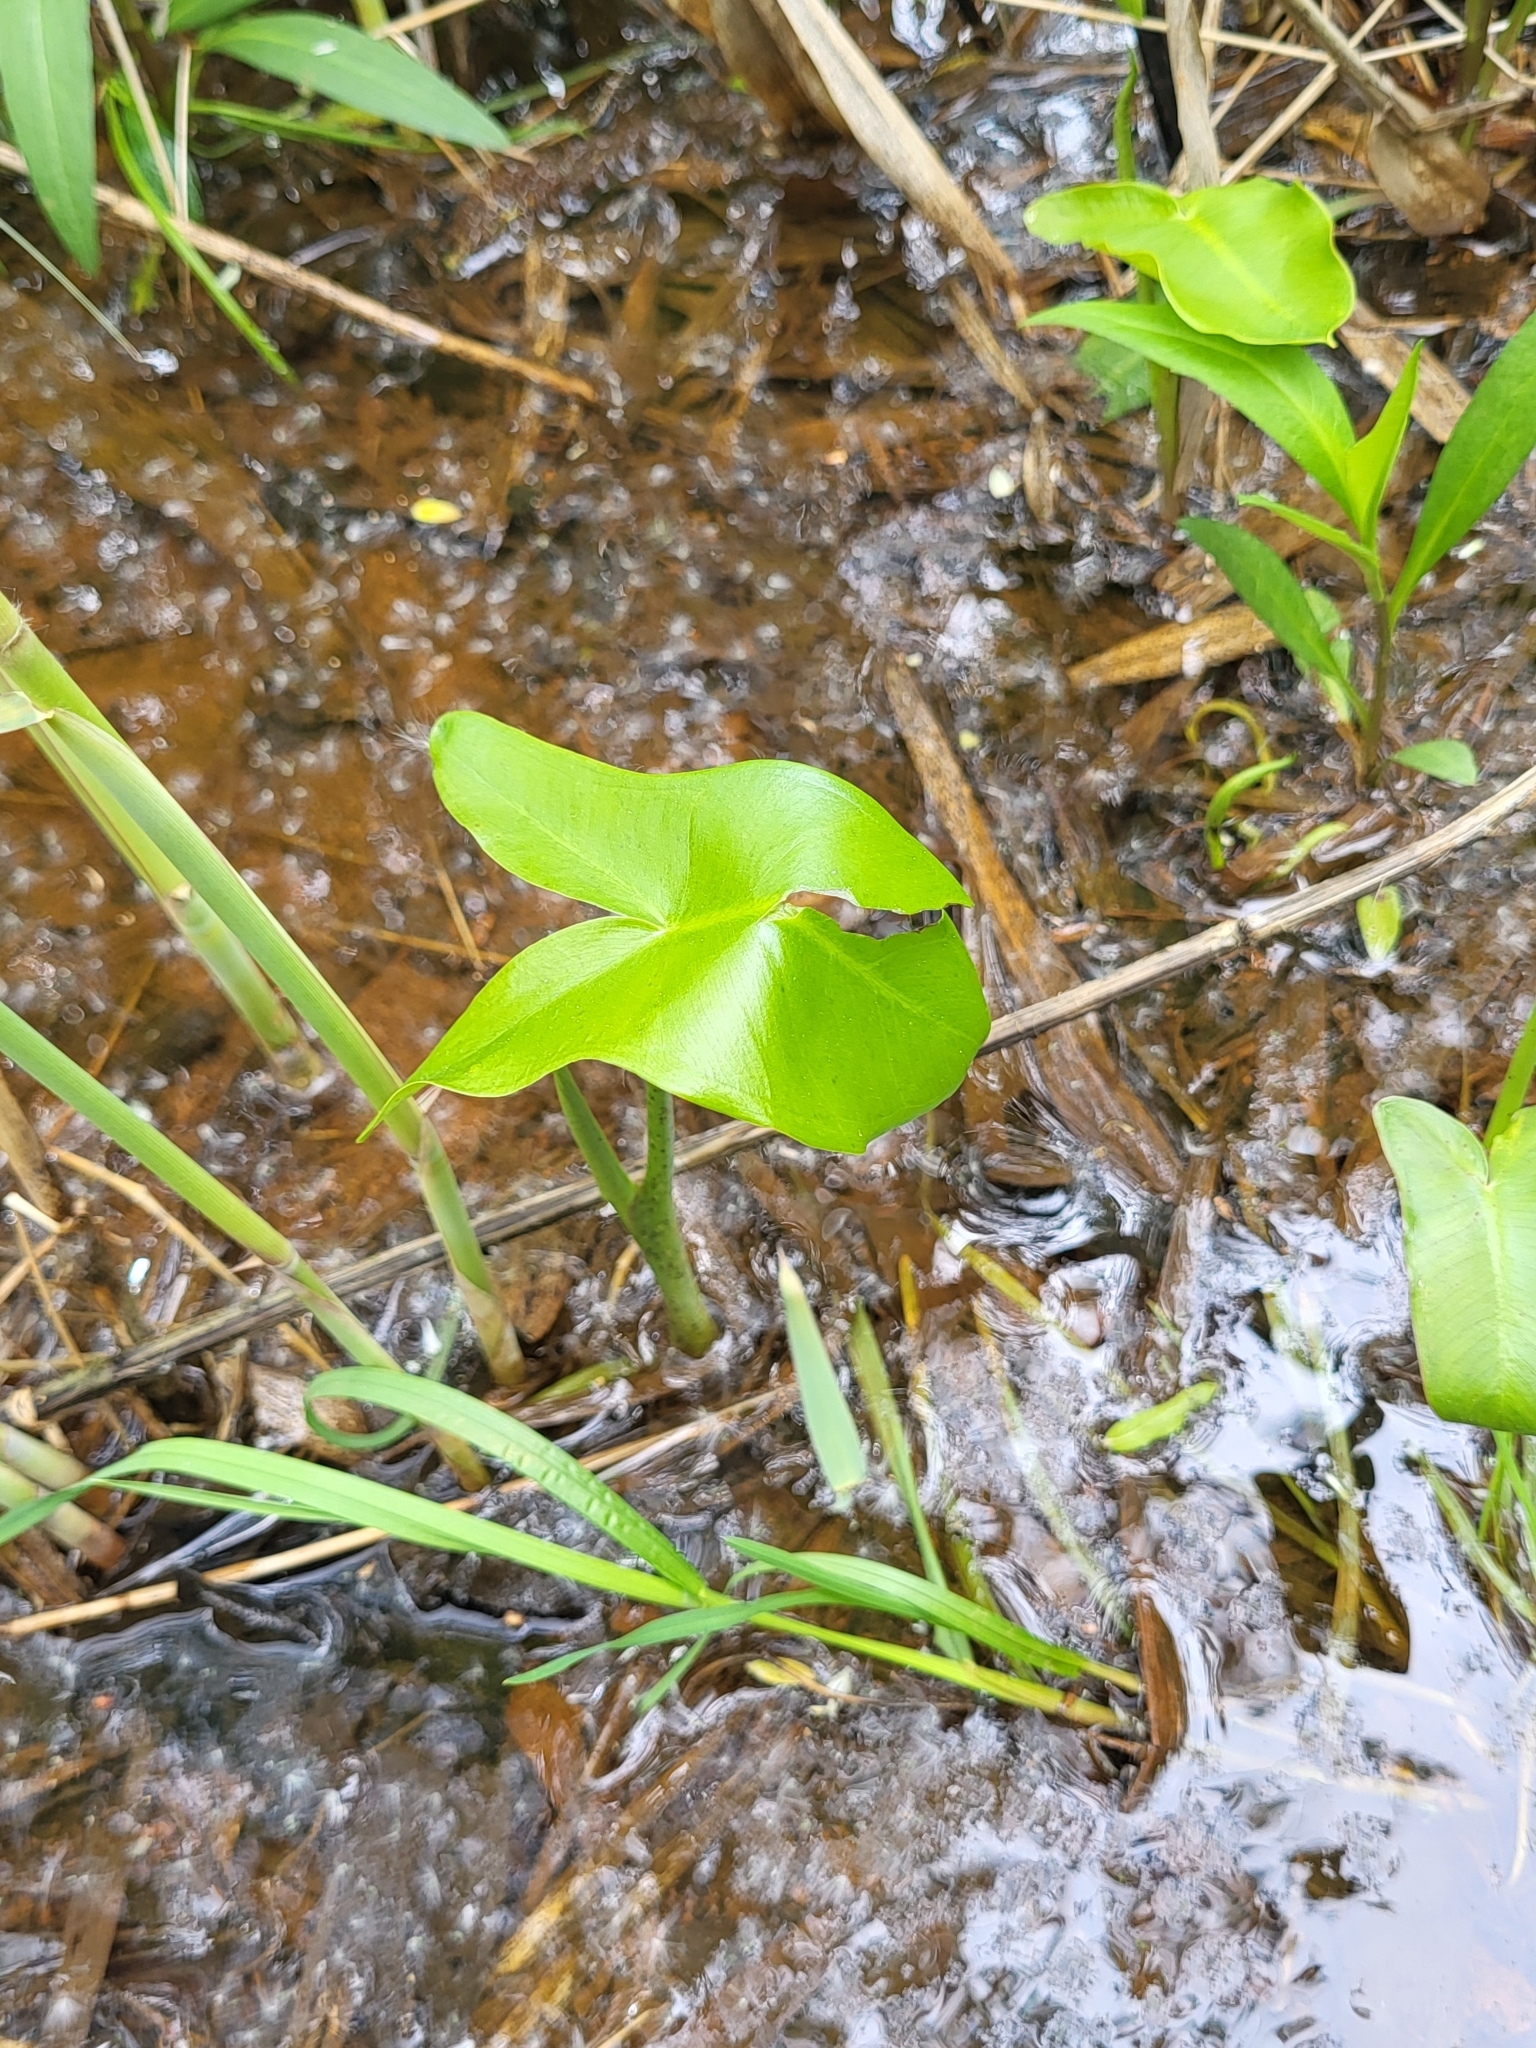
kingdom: Plantae
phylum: Tracheophyta
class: Liliopsida
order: Alismatales
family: Araceae
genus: Peltandra
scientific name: Peltandra virginica
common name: Arrow arum
